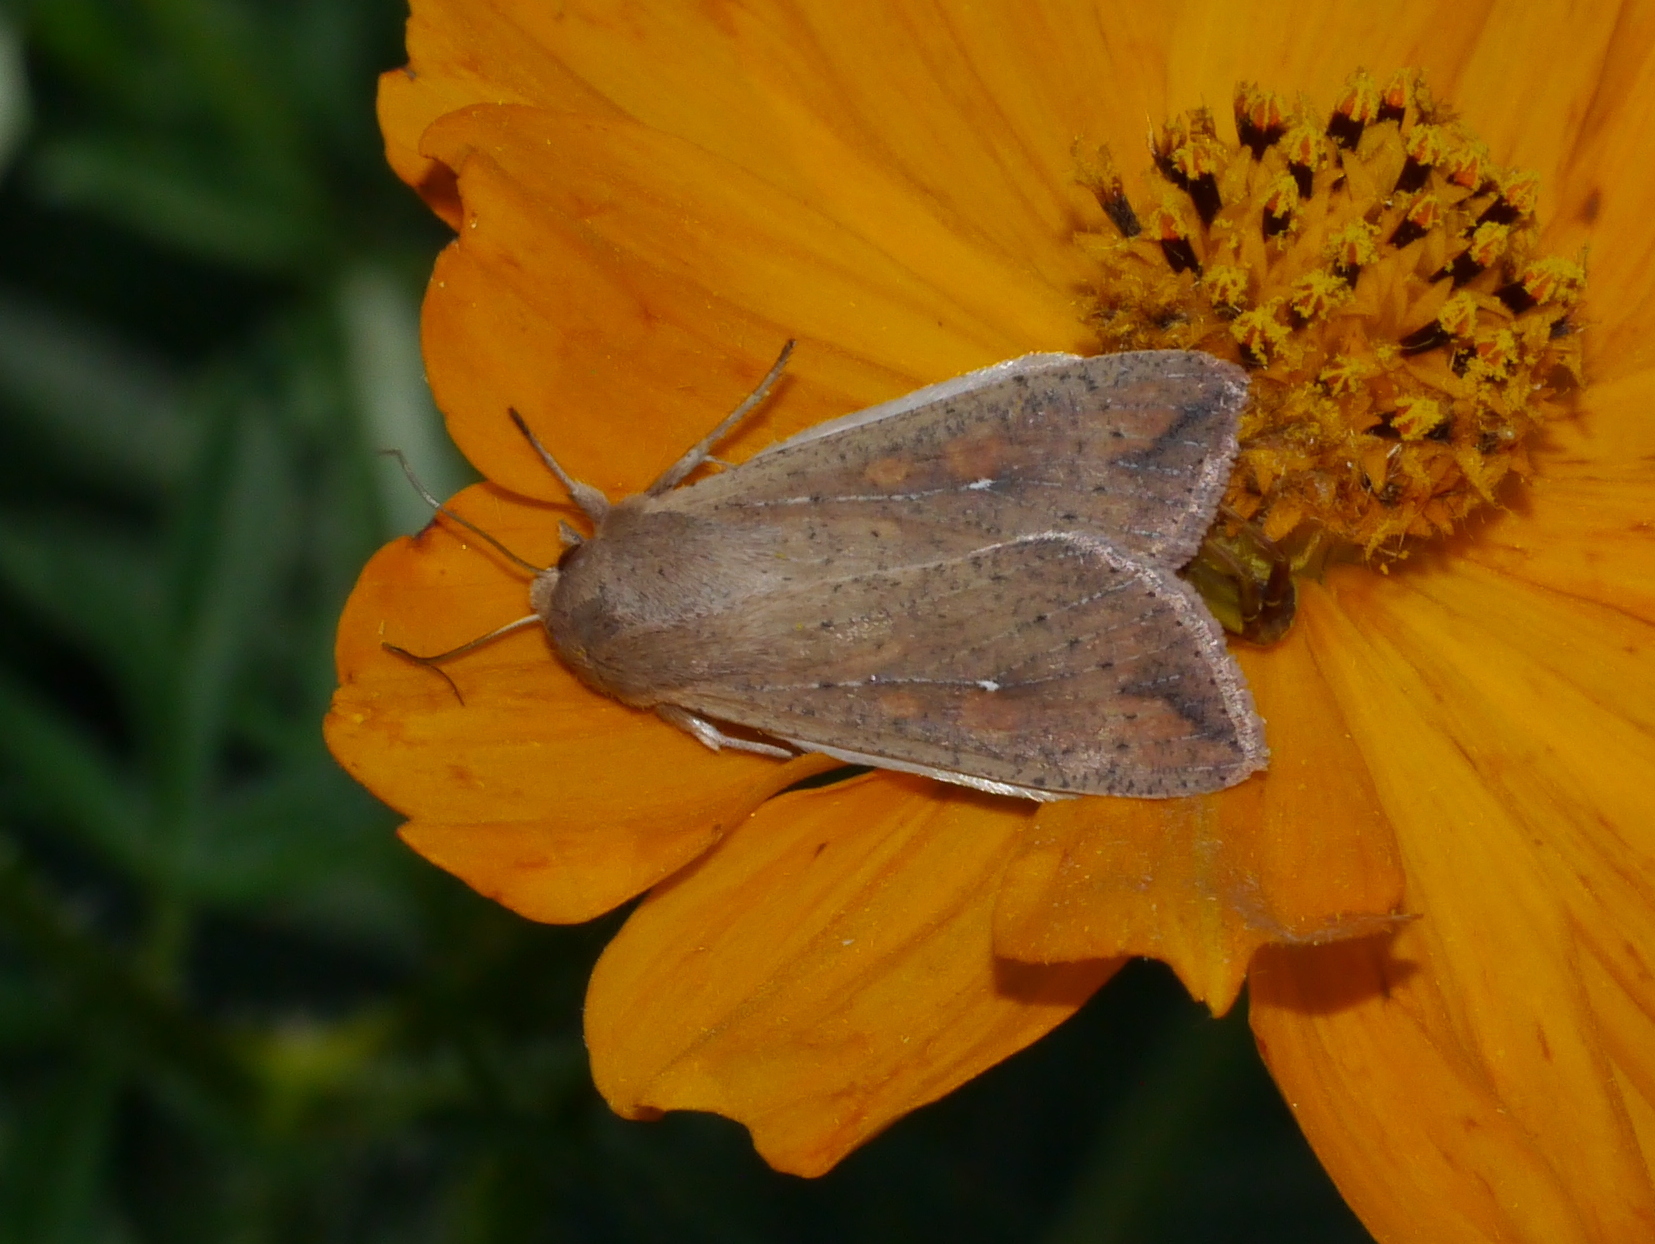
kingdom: Animalia
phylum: Arthropoda
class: Insecta
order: Lepidoptera
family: Noctuidae
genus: Mythimna
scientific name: Mythimna unipuncta
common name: White-speck
